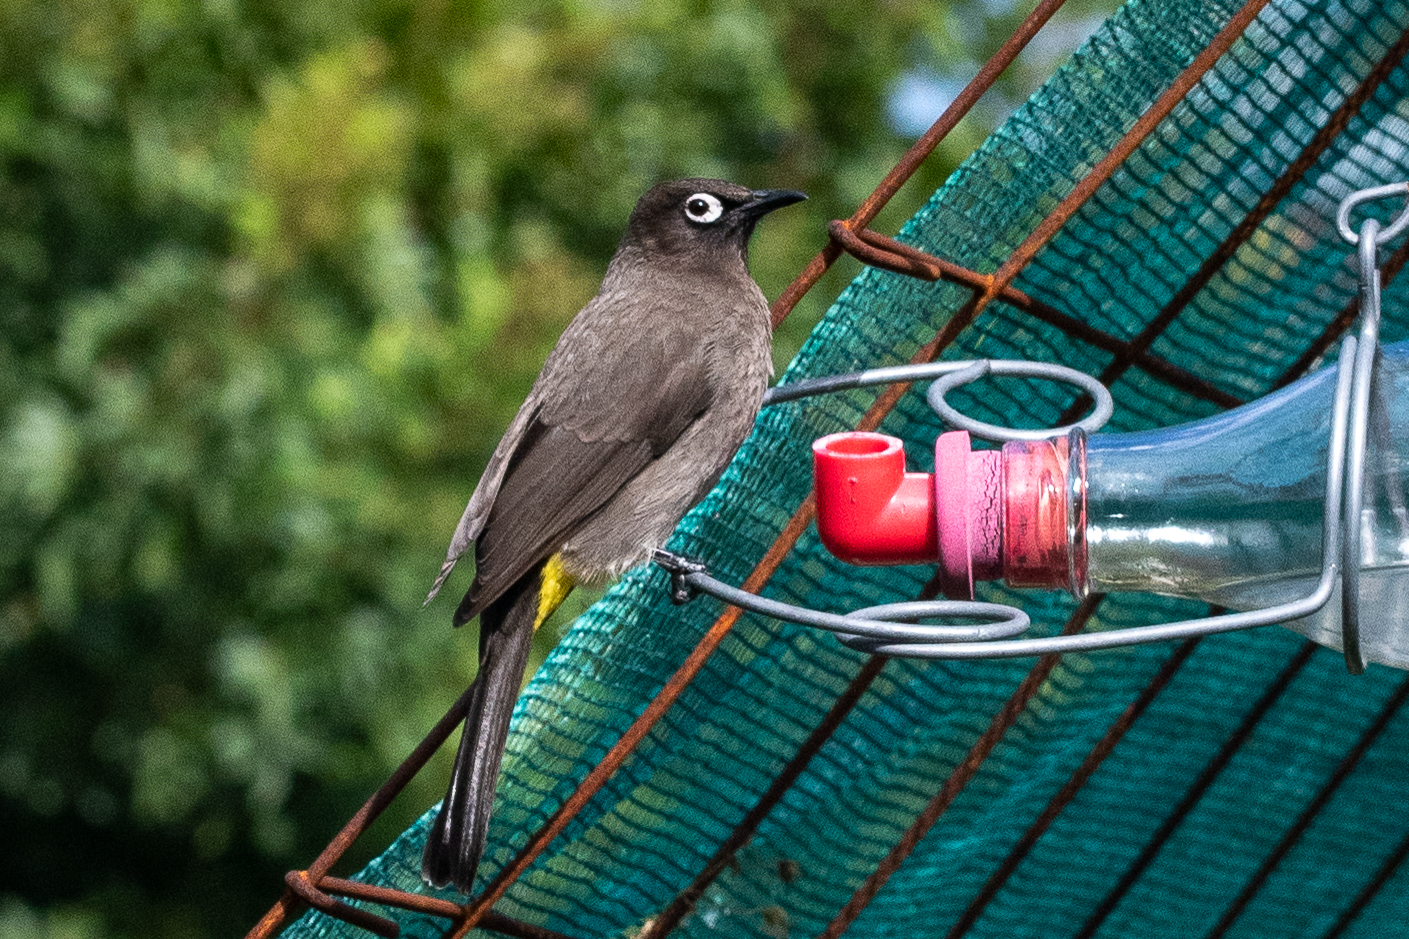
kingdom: Animalia
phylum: Chordata
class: Aves
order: Passeriformes
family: Pycnonotidae
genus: Pycnonotus
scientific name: Pycnonotus capensis
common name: Cape bulbul
